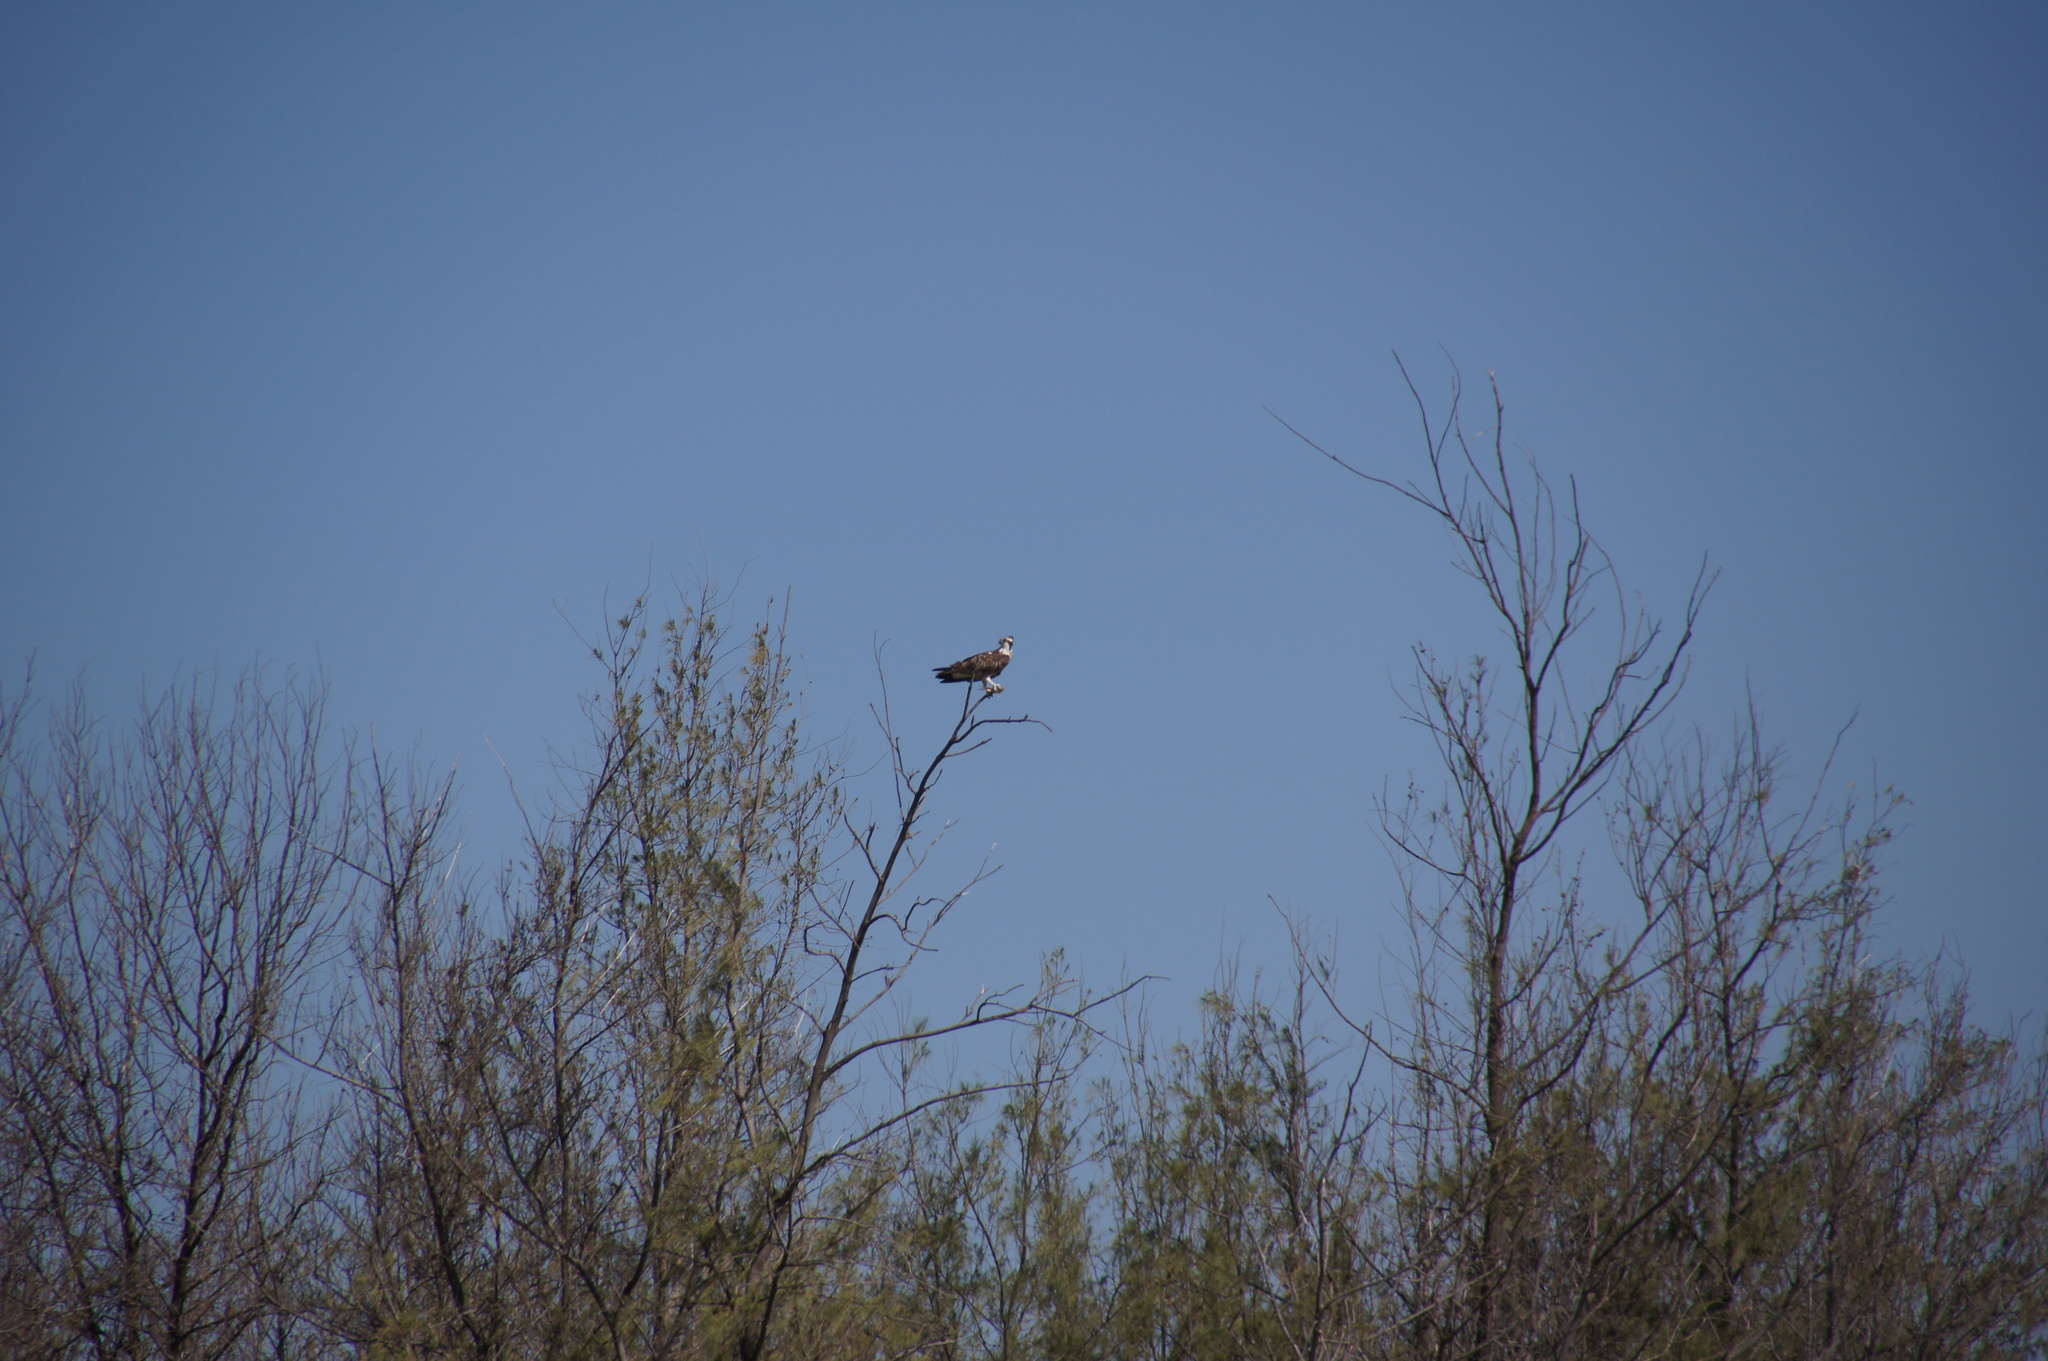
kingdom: Animalia
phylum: Chordata
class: Aves
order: Accipitriformes
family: Pandionidae
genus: Pandion
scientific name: Pandion haliaetus
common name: Osprey
